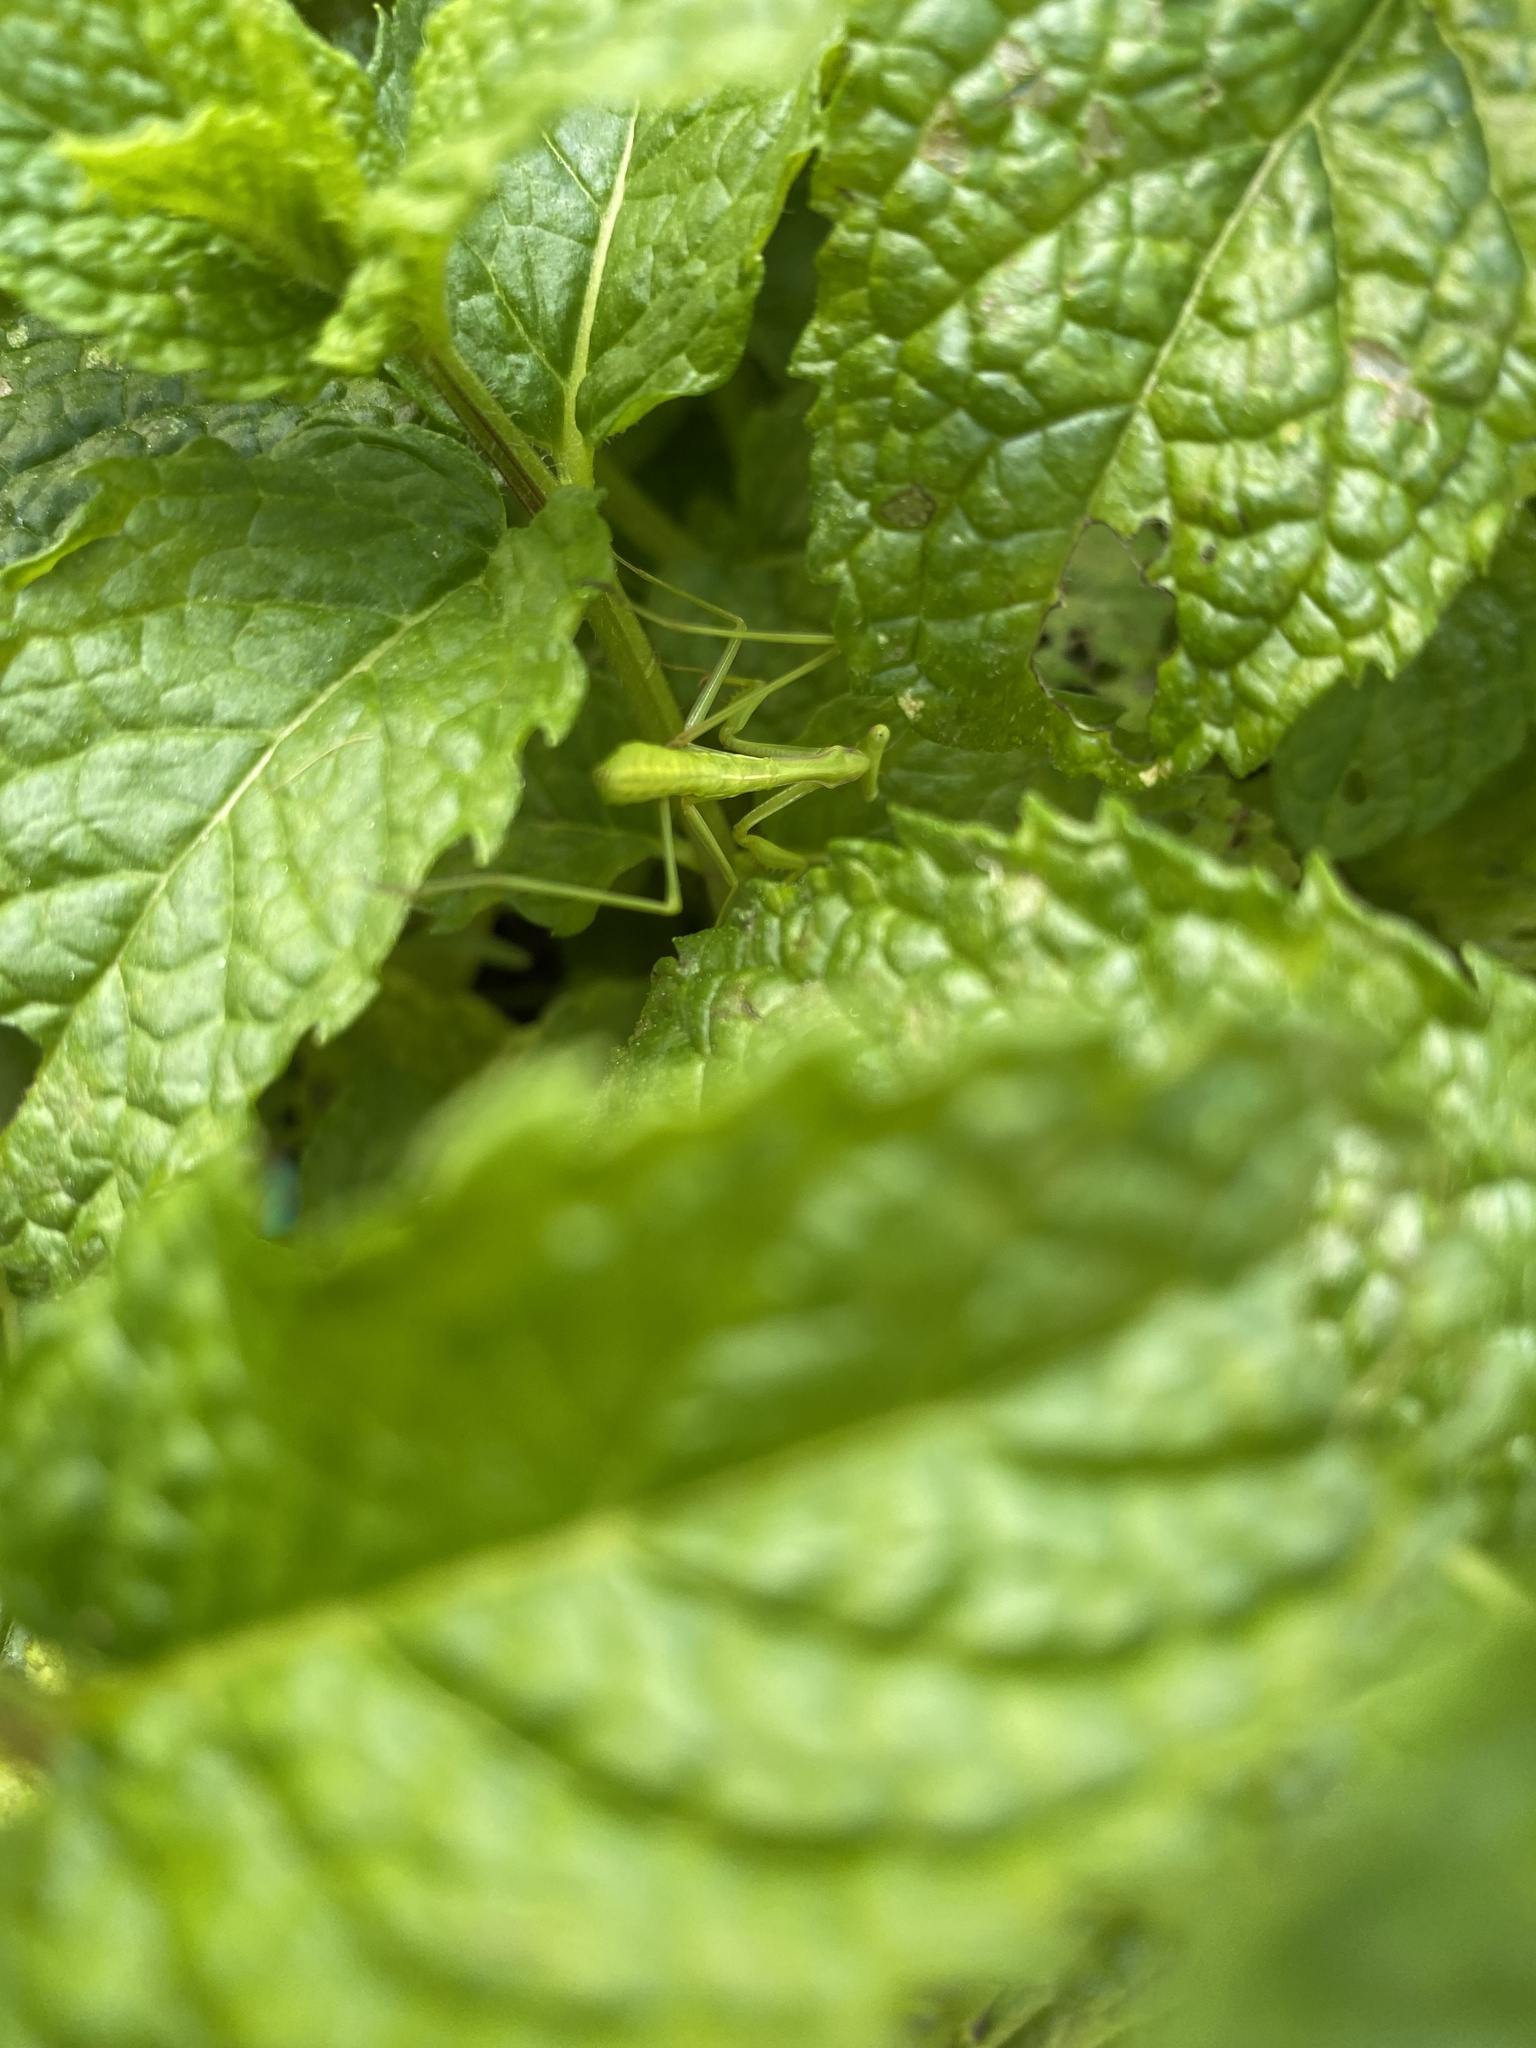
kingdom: Animalia
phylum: Arthropoda
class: Insecta
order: Mantodea
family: Mantidae
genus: Pseudomantis
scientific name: Pseudomantis albofimbriata
